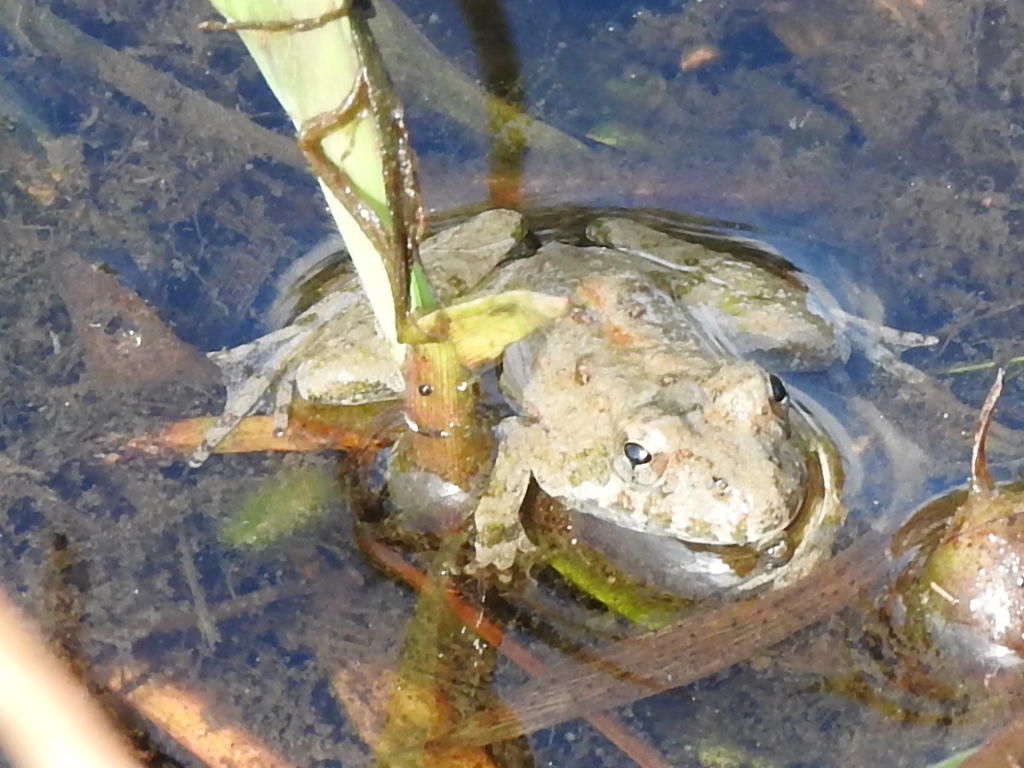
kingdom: Animalia
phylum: Chordata
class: Amphibia
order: Anura
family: Hylidae
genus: Acris
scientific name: Acris blanchardi
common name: Blanchard's cricket frog
